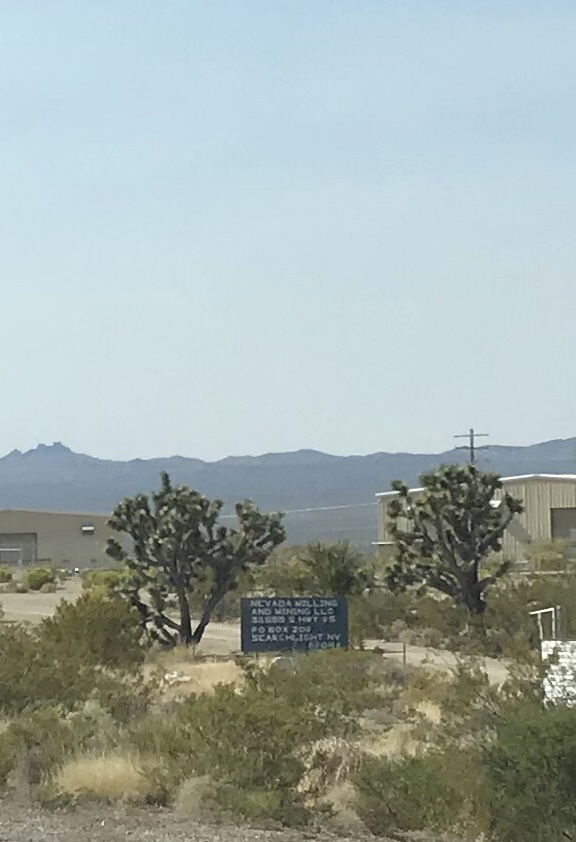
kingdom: Plantae
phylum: Tracheophyta
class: Liliopsida
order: Asparagales
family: Asparagaceae
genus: Yucca
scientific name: Yucca brevifolia
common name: Joshua tree
